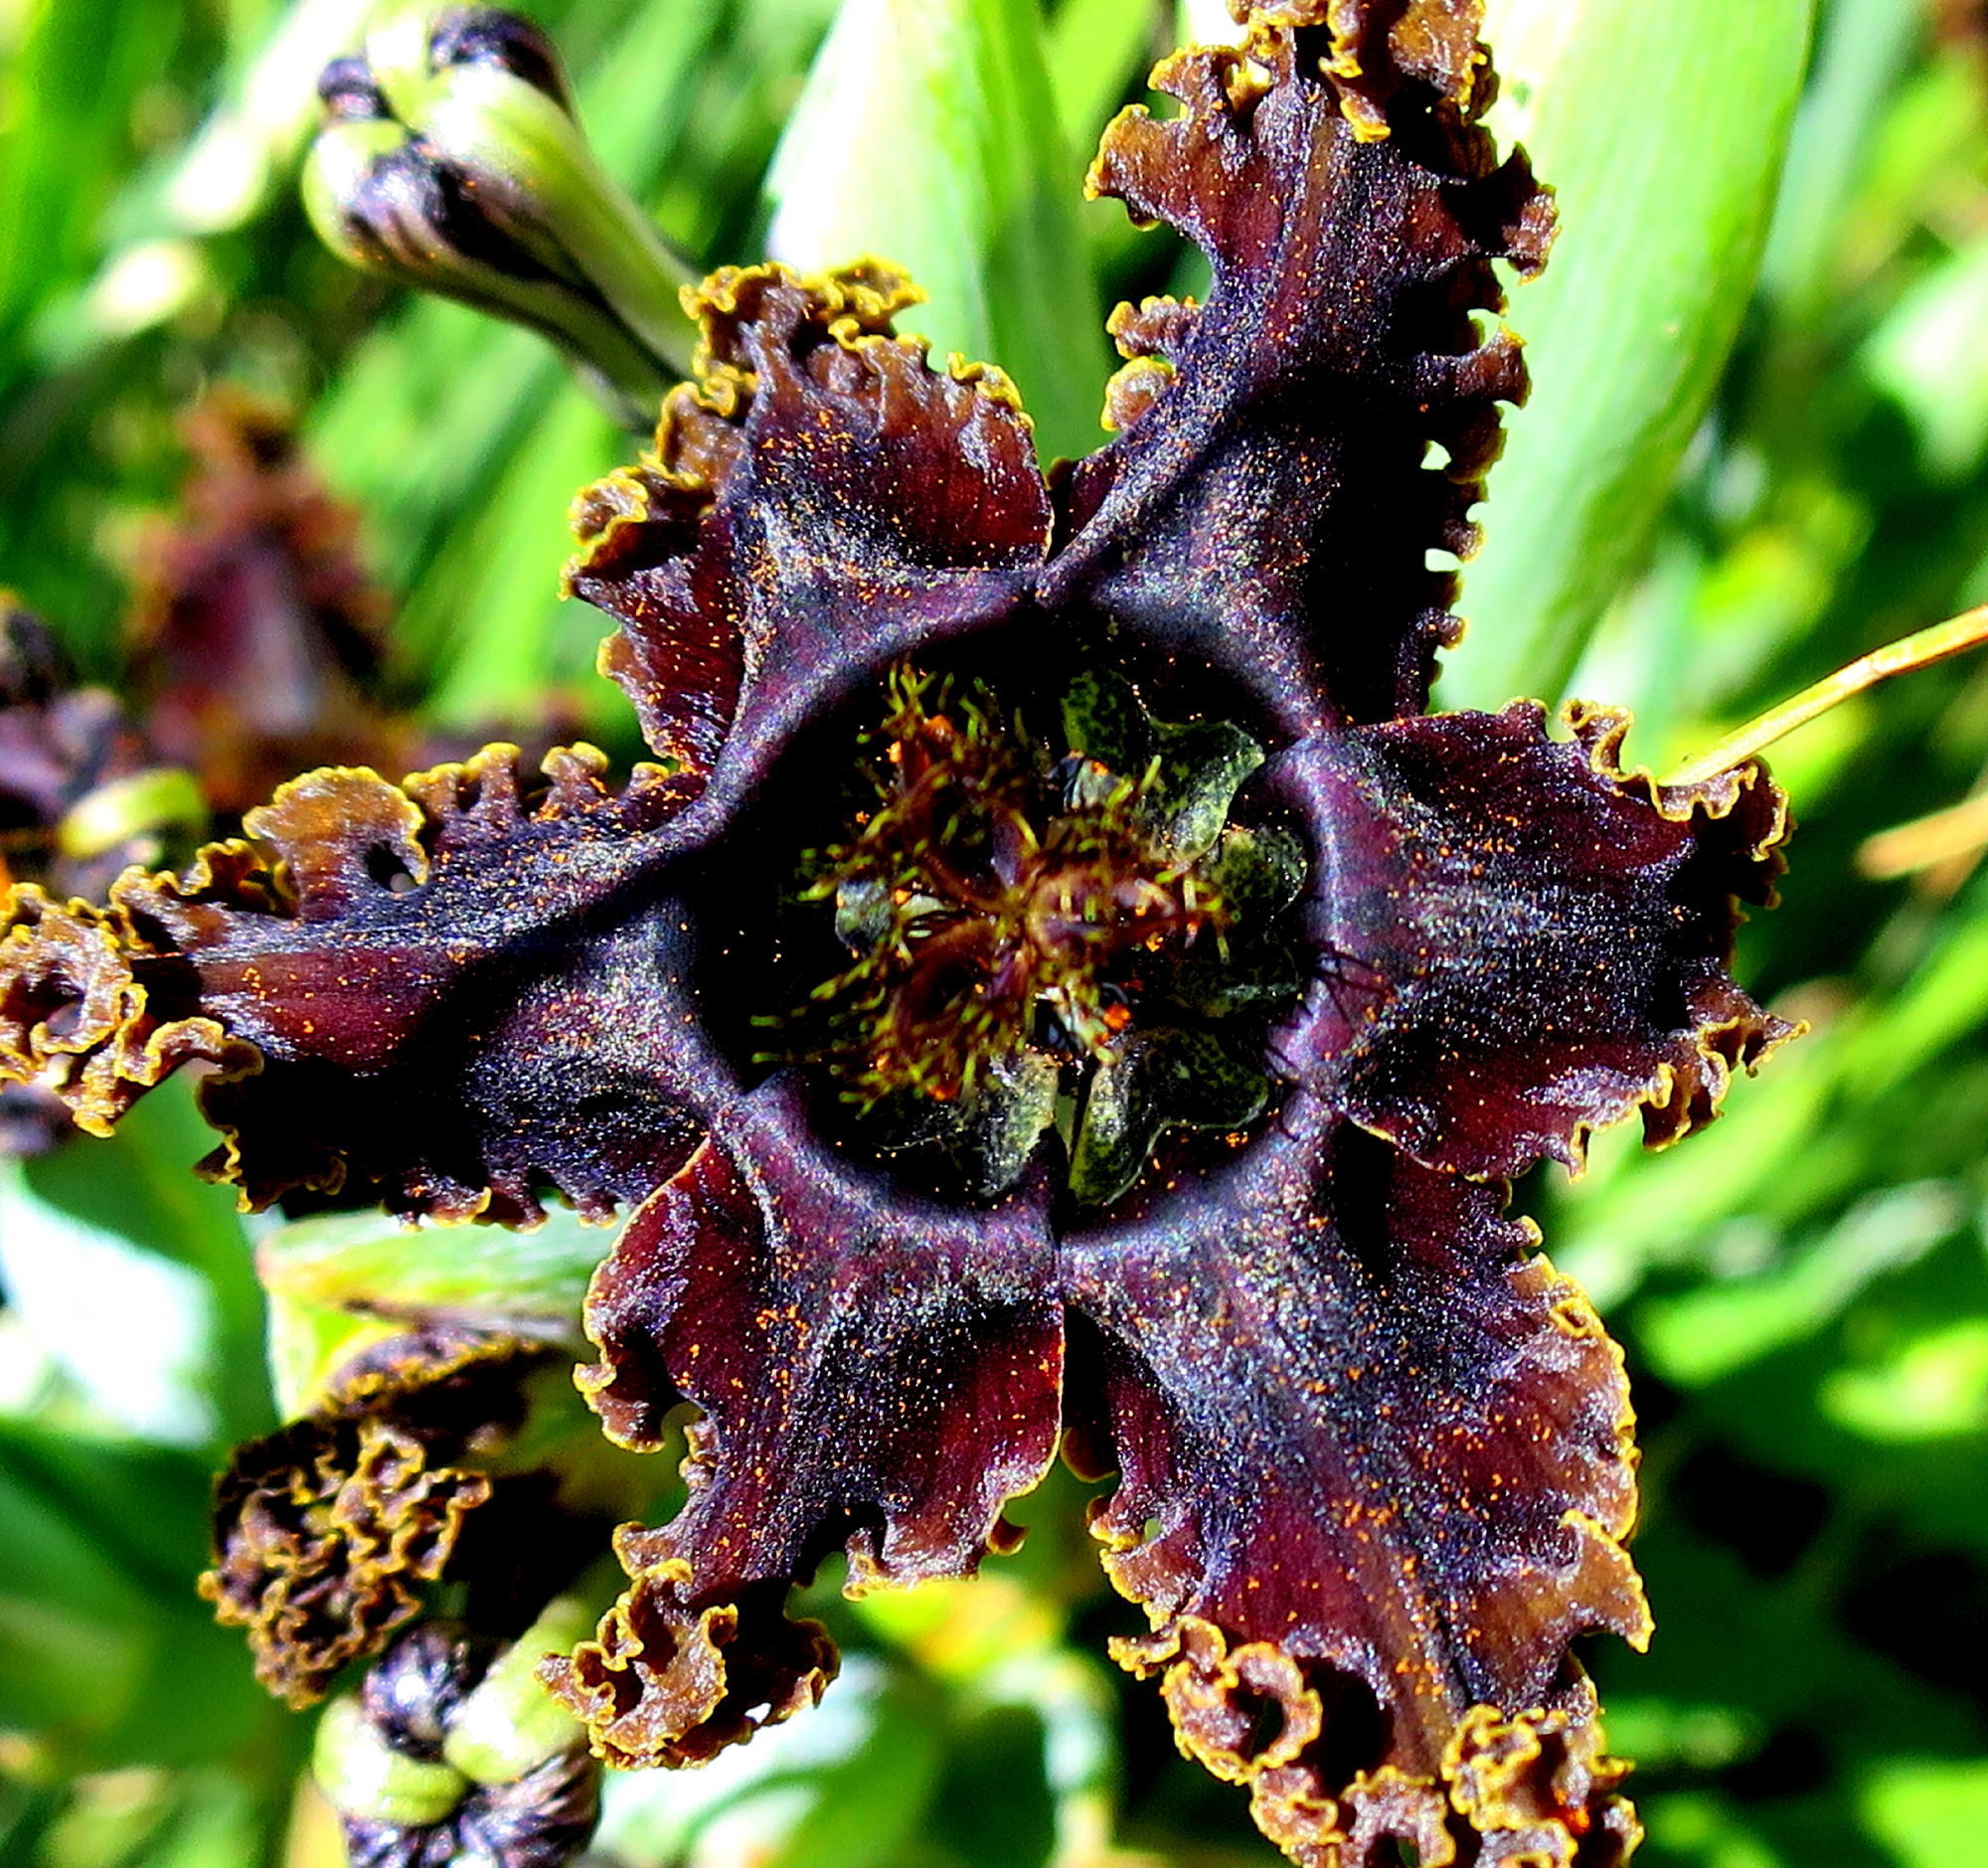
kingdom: Plantae
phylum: Tracheophyta
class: Liliopsida
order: Asparagales
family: Iridaceae
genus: Ferraria
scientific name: Ferraria crispa
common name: Black-flag
